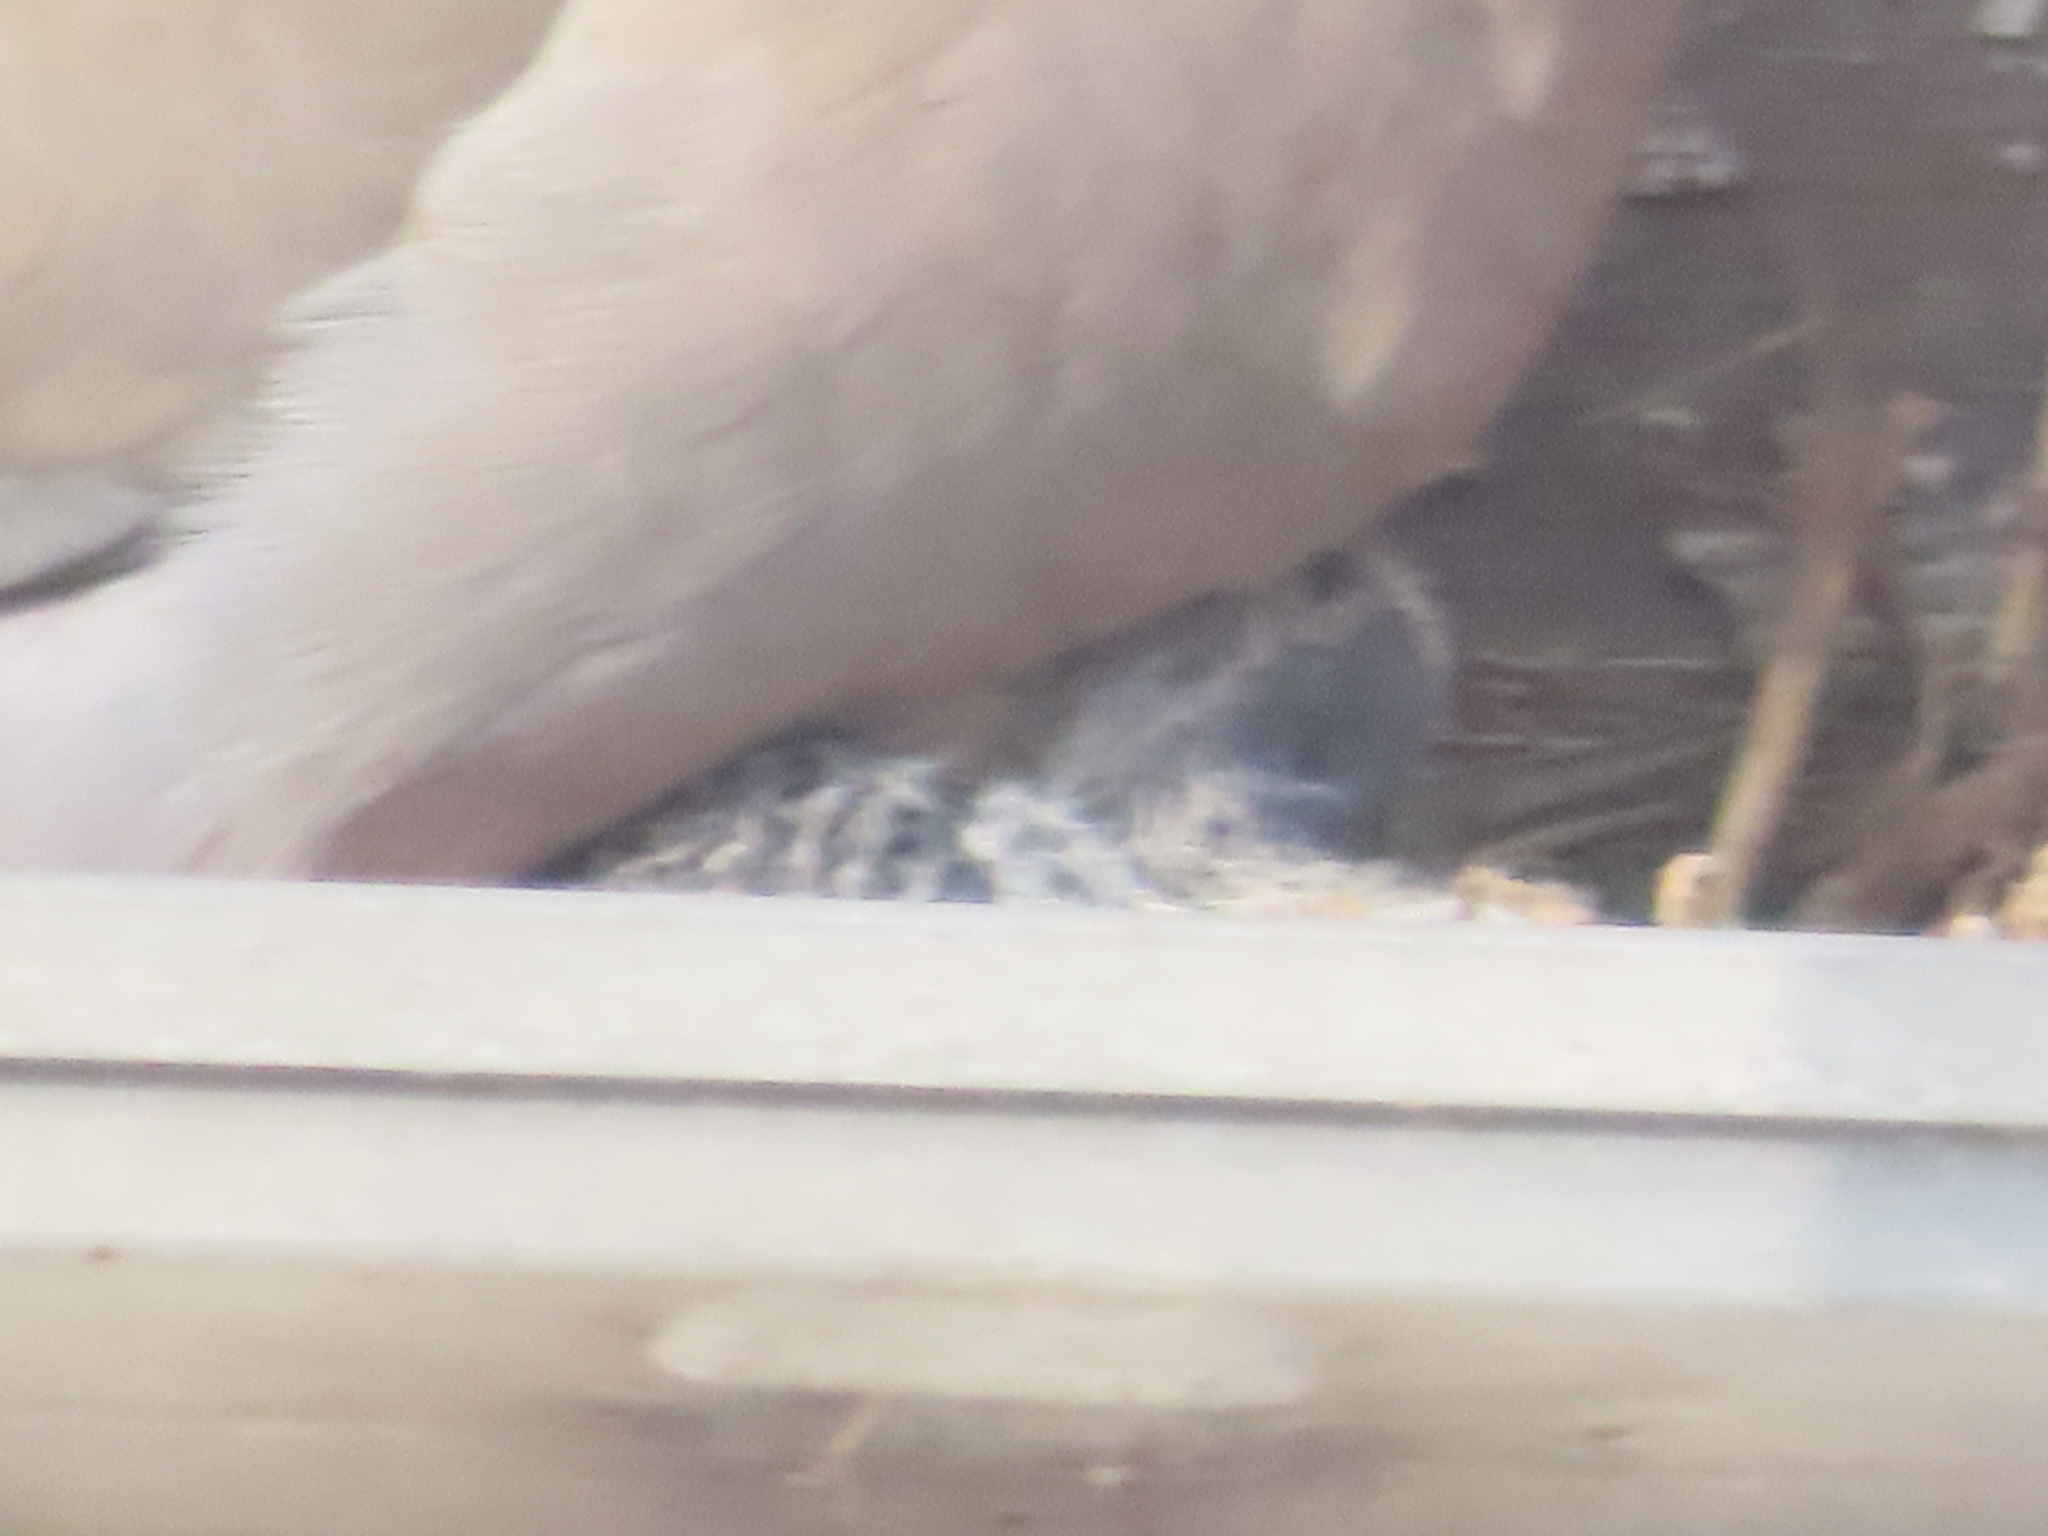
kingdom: Animalia
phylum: Chordata
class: Aves
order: Columbiformes
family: Columbidae
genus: Zenaida
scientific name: Zenaida macroura
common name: Mourning dove
